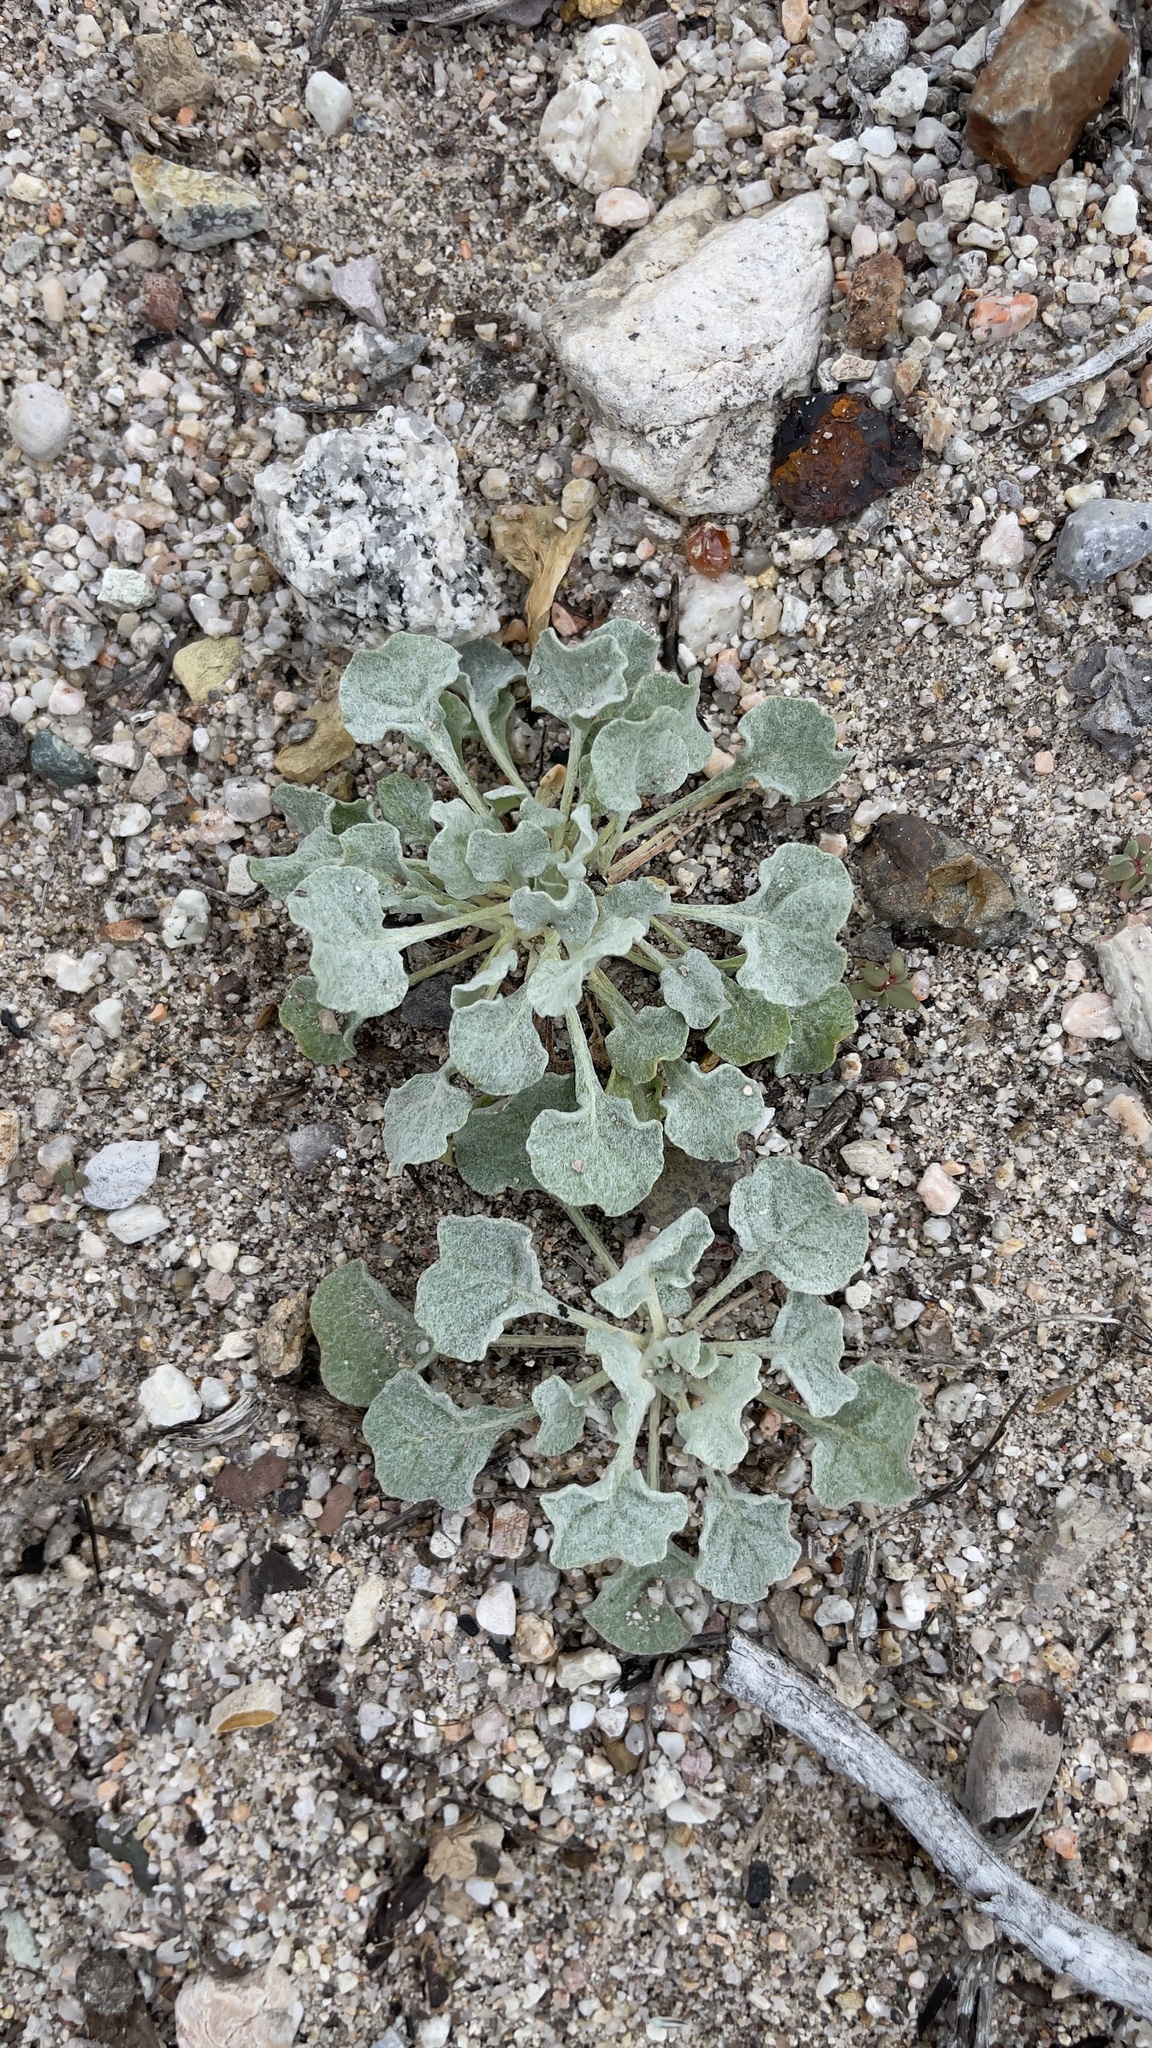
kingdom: Plantae
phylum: Tracheophyta
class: Magnoliopsida
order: Caryophyllales
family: Polygonaceae
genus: Eriogonum
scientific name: Eriogonum elegans
